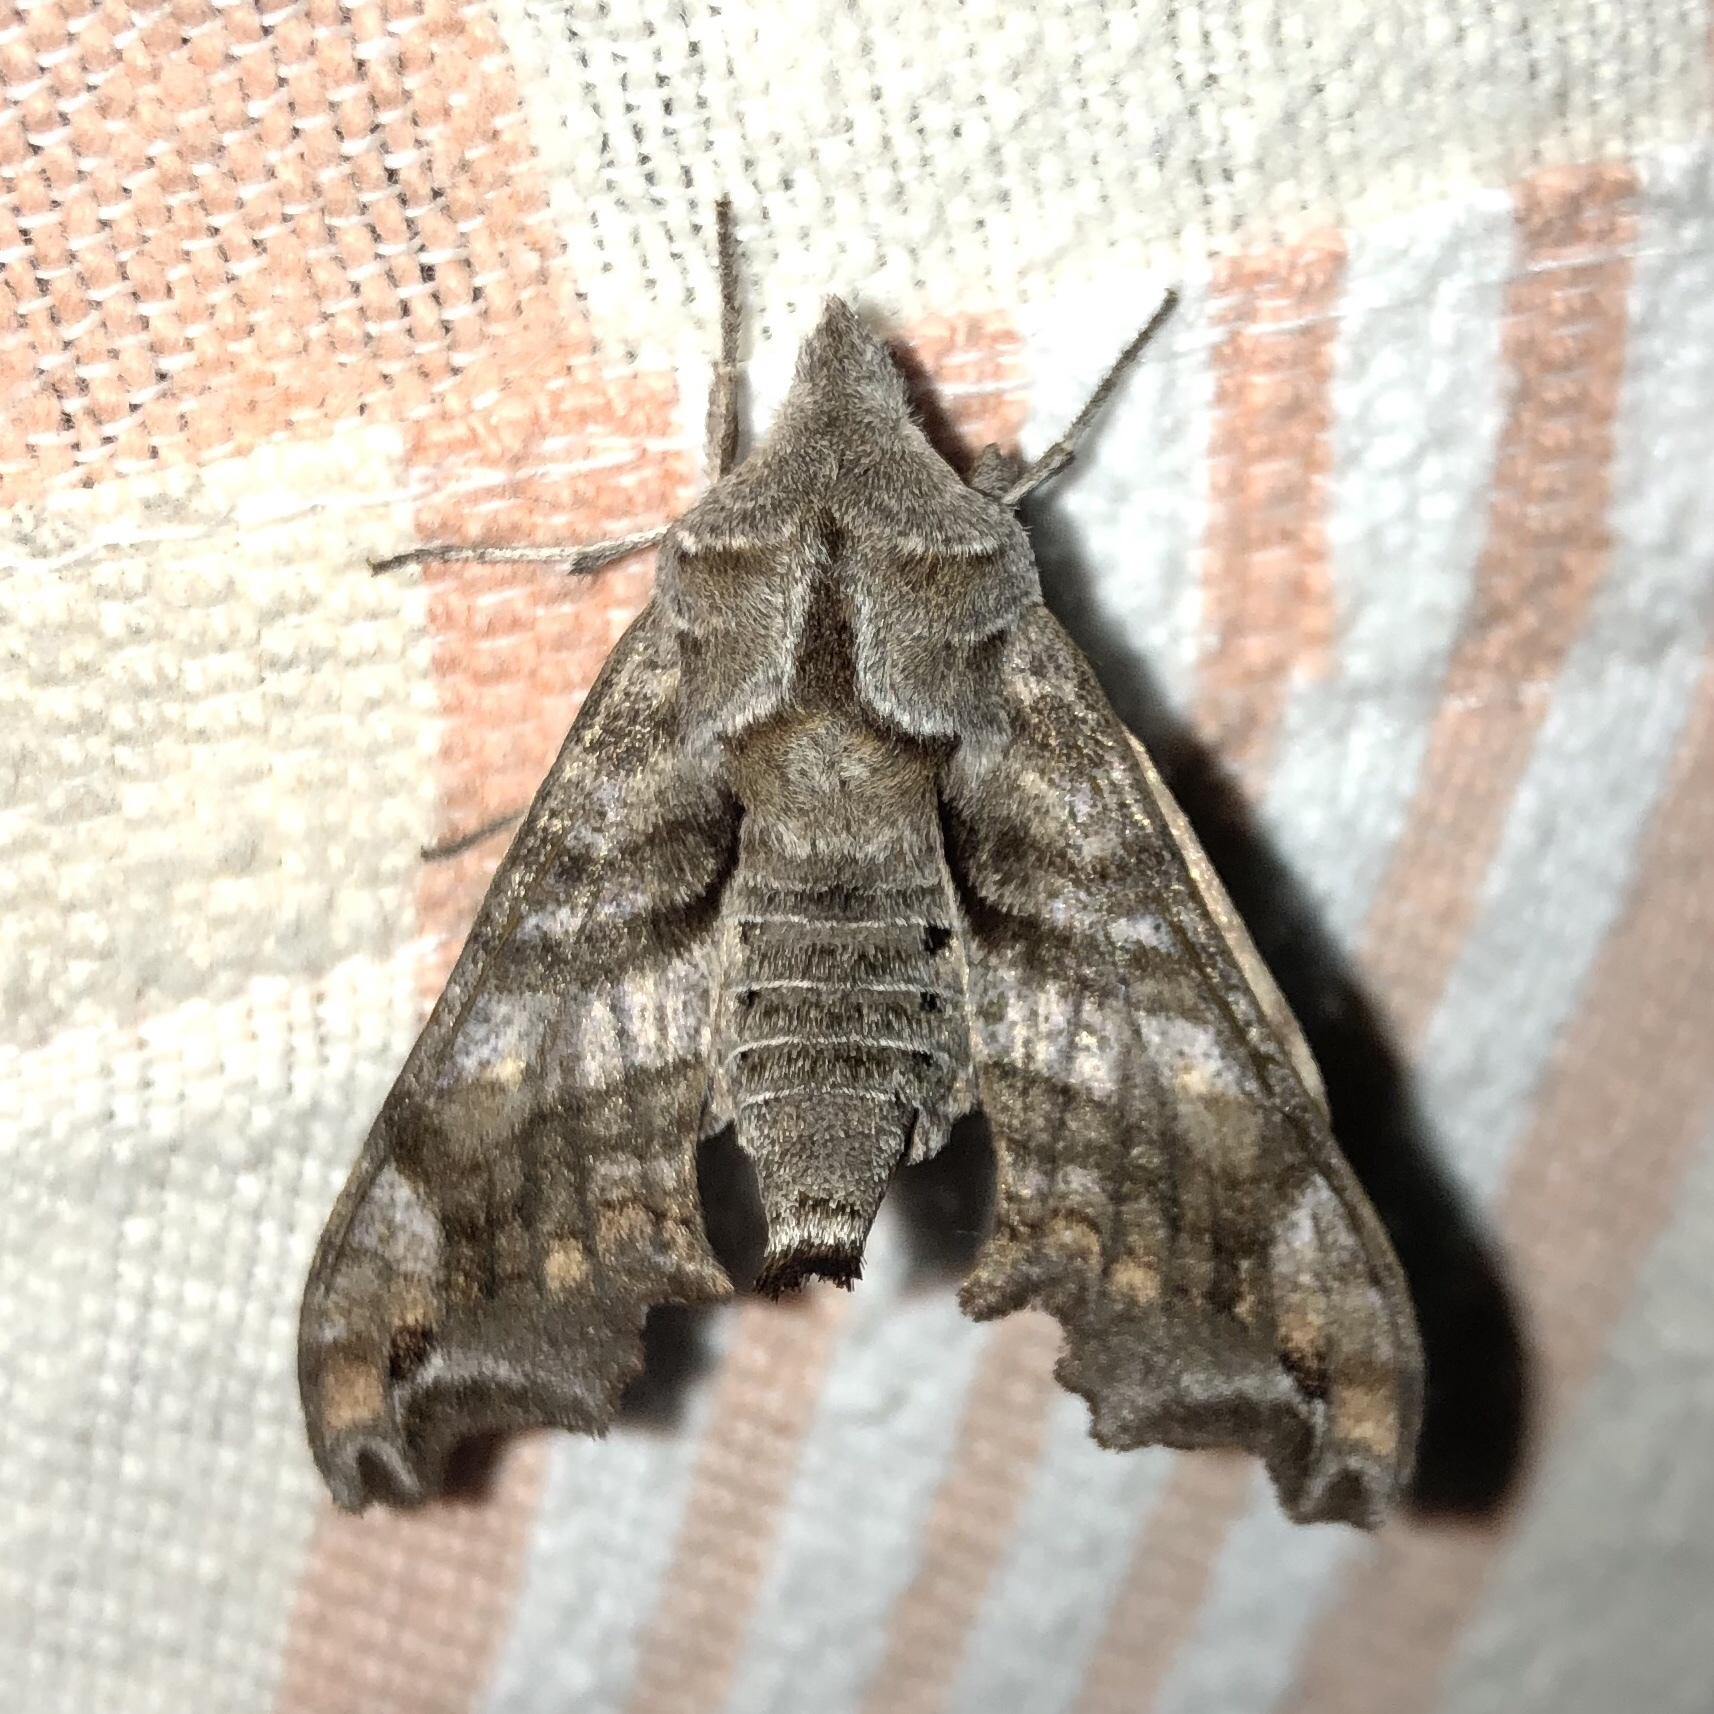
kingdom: Animalia
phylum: Arthropoda
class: Insecta
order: Lepidoptera
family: Sphingidae
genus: Deidamia
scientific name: Deidamia inscriptum
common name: Lettered sphinx
